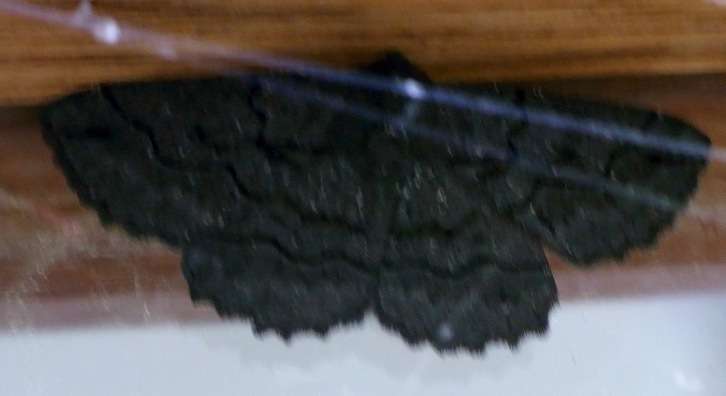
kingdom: Animalia
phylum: Arthropoda
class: Insecta
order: Lepidoptera
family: Geometridae
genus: Melanodes
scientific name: Melanodes anthracitaria
